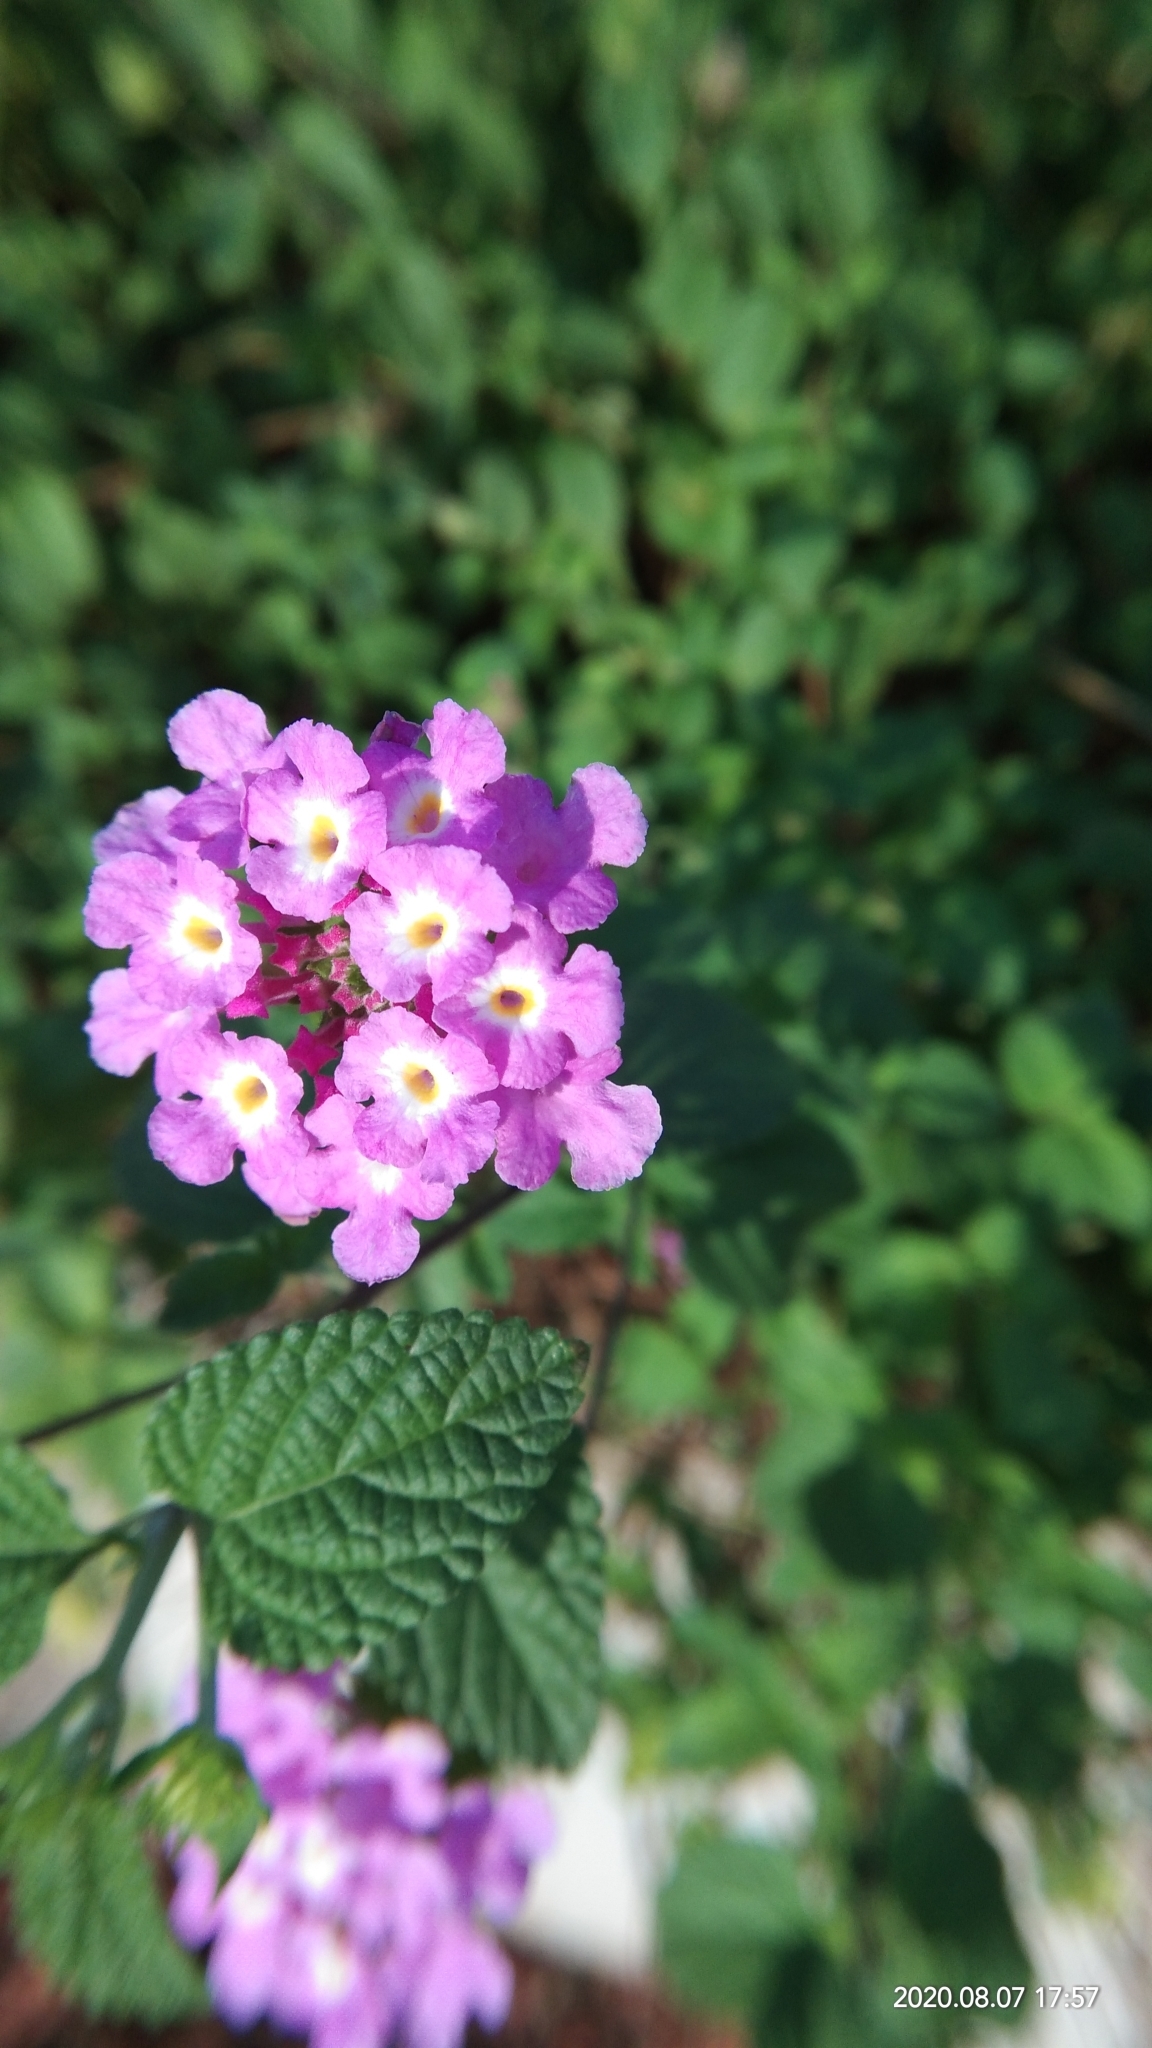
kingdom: Plantae
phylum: Tracheophyta
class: Magnoliopsida
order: Lamiales
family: Verbenaceae
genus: Lantana
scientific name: Lantana montevidensis
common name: Trailing shrubverbena
